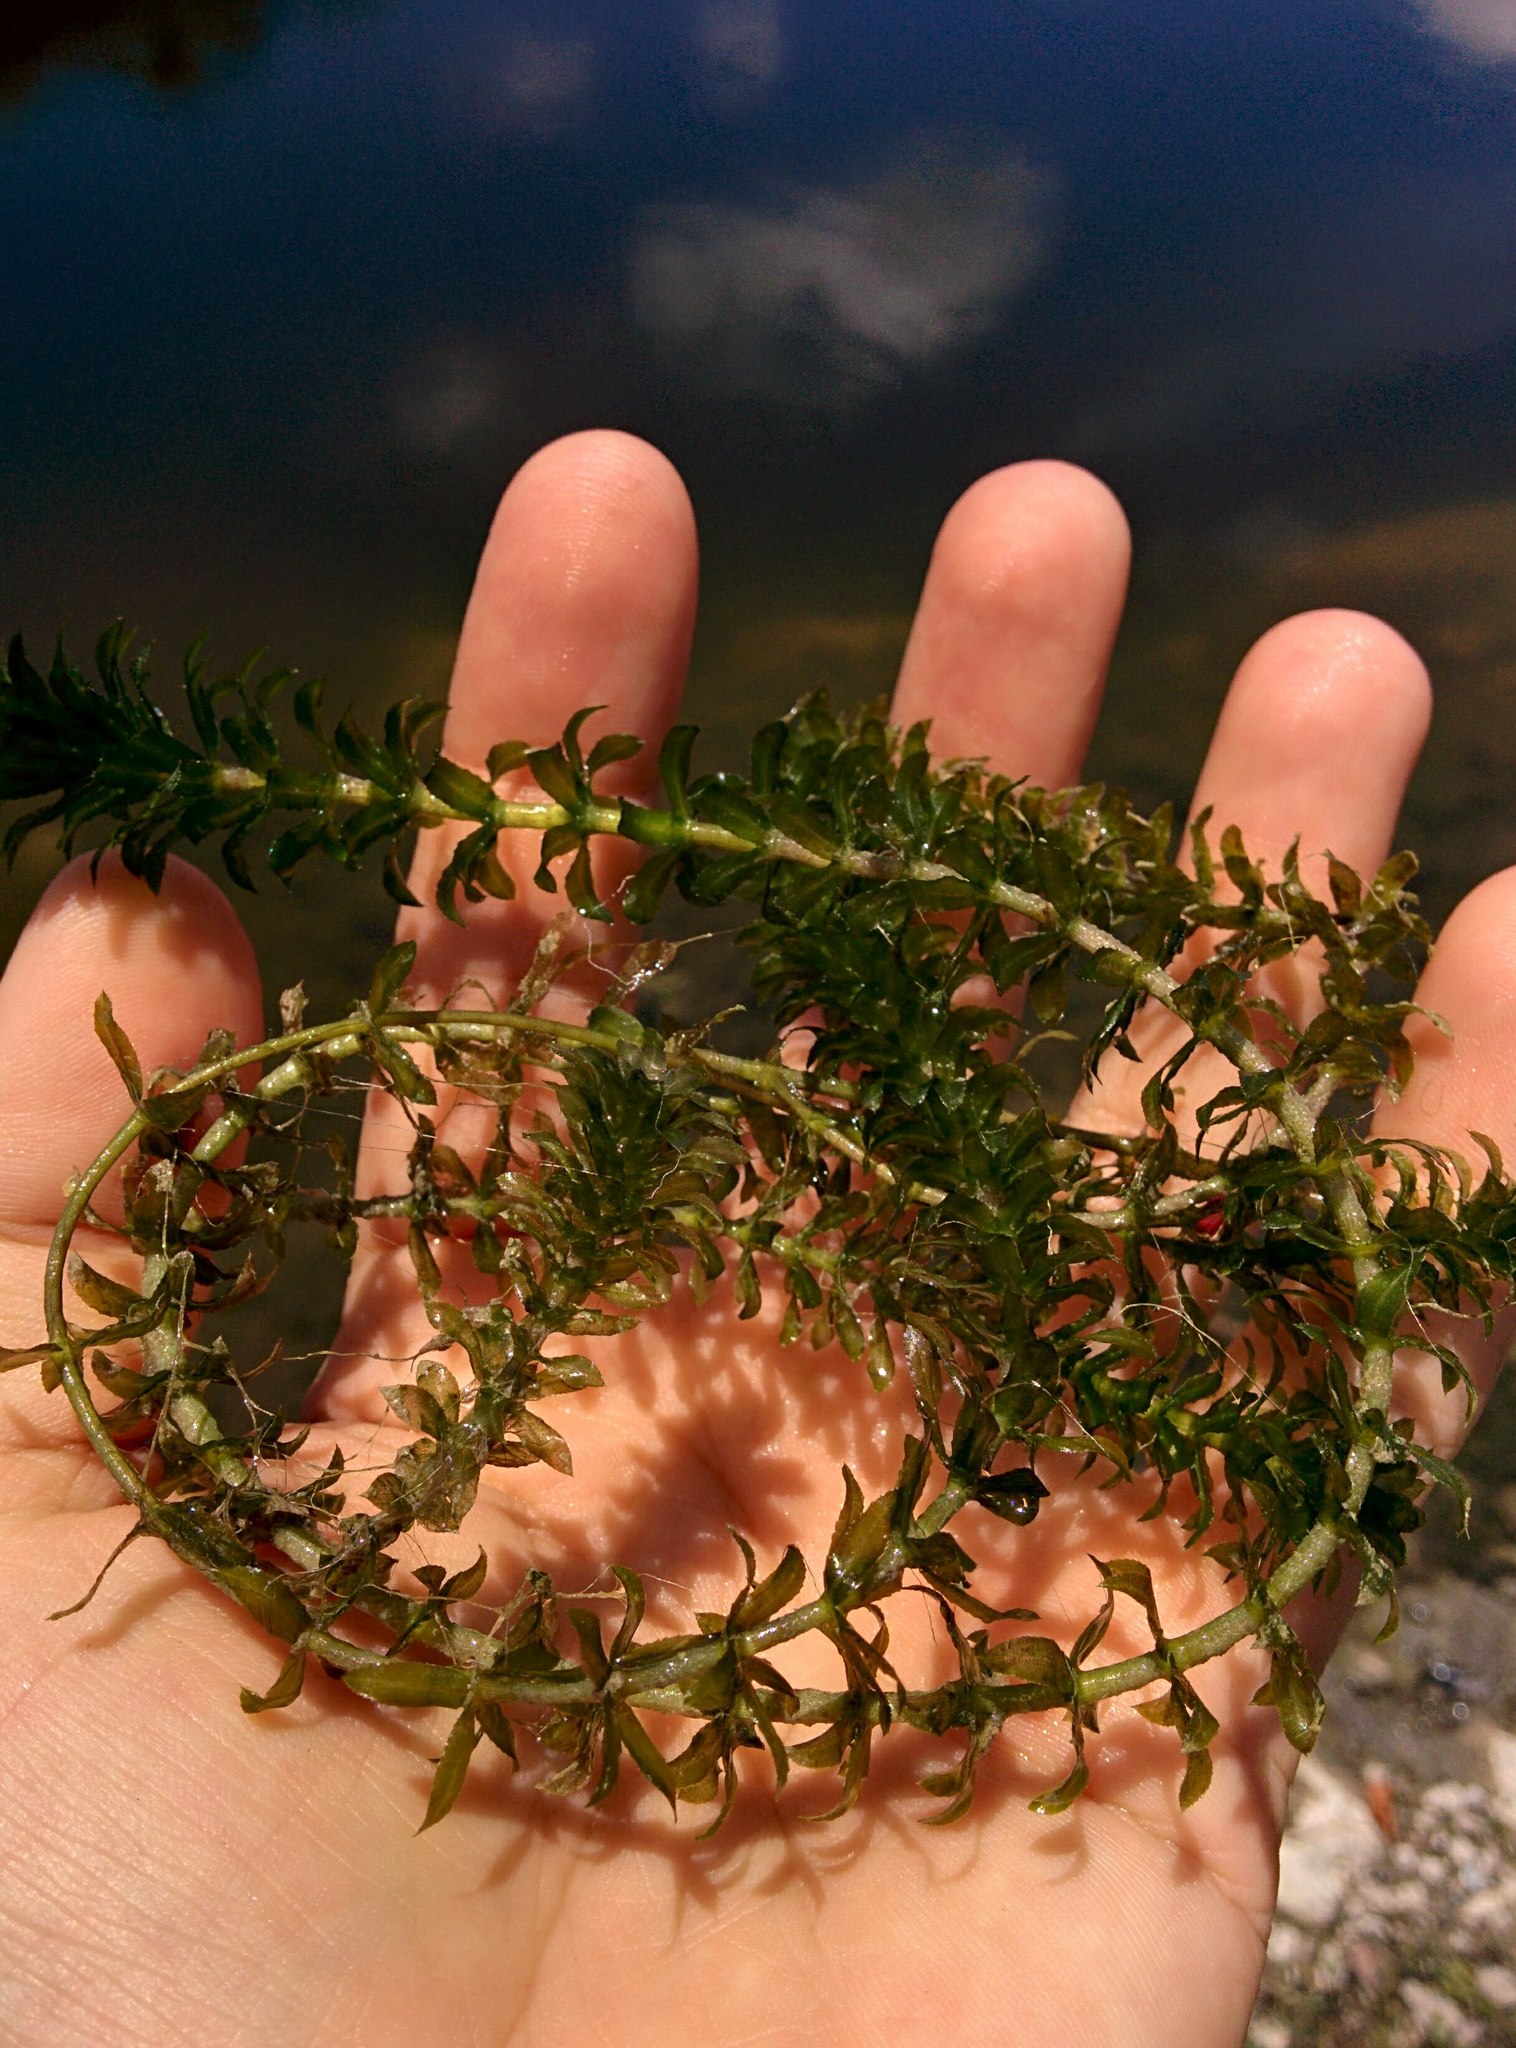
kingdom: Plantae
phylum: Tracheophyta
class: Liliopsida
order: Alismatales
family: Hydrocharitaceae
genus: Hydrilla
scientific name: Hydrilla verticillata
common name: Florida-elodea
